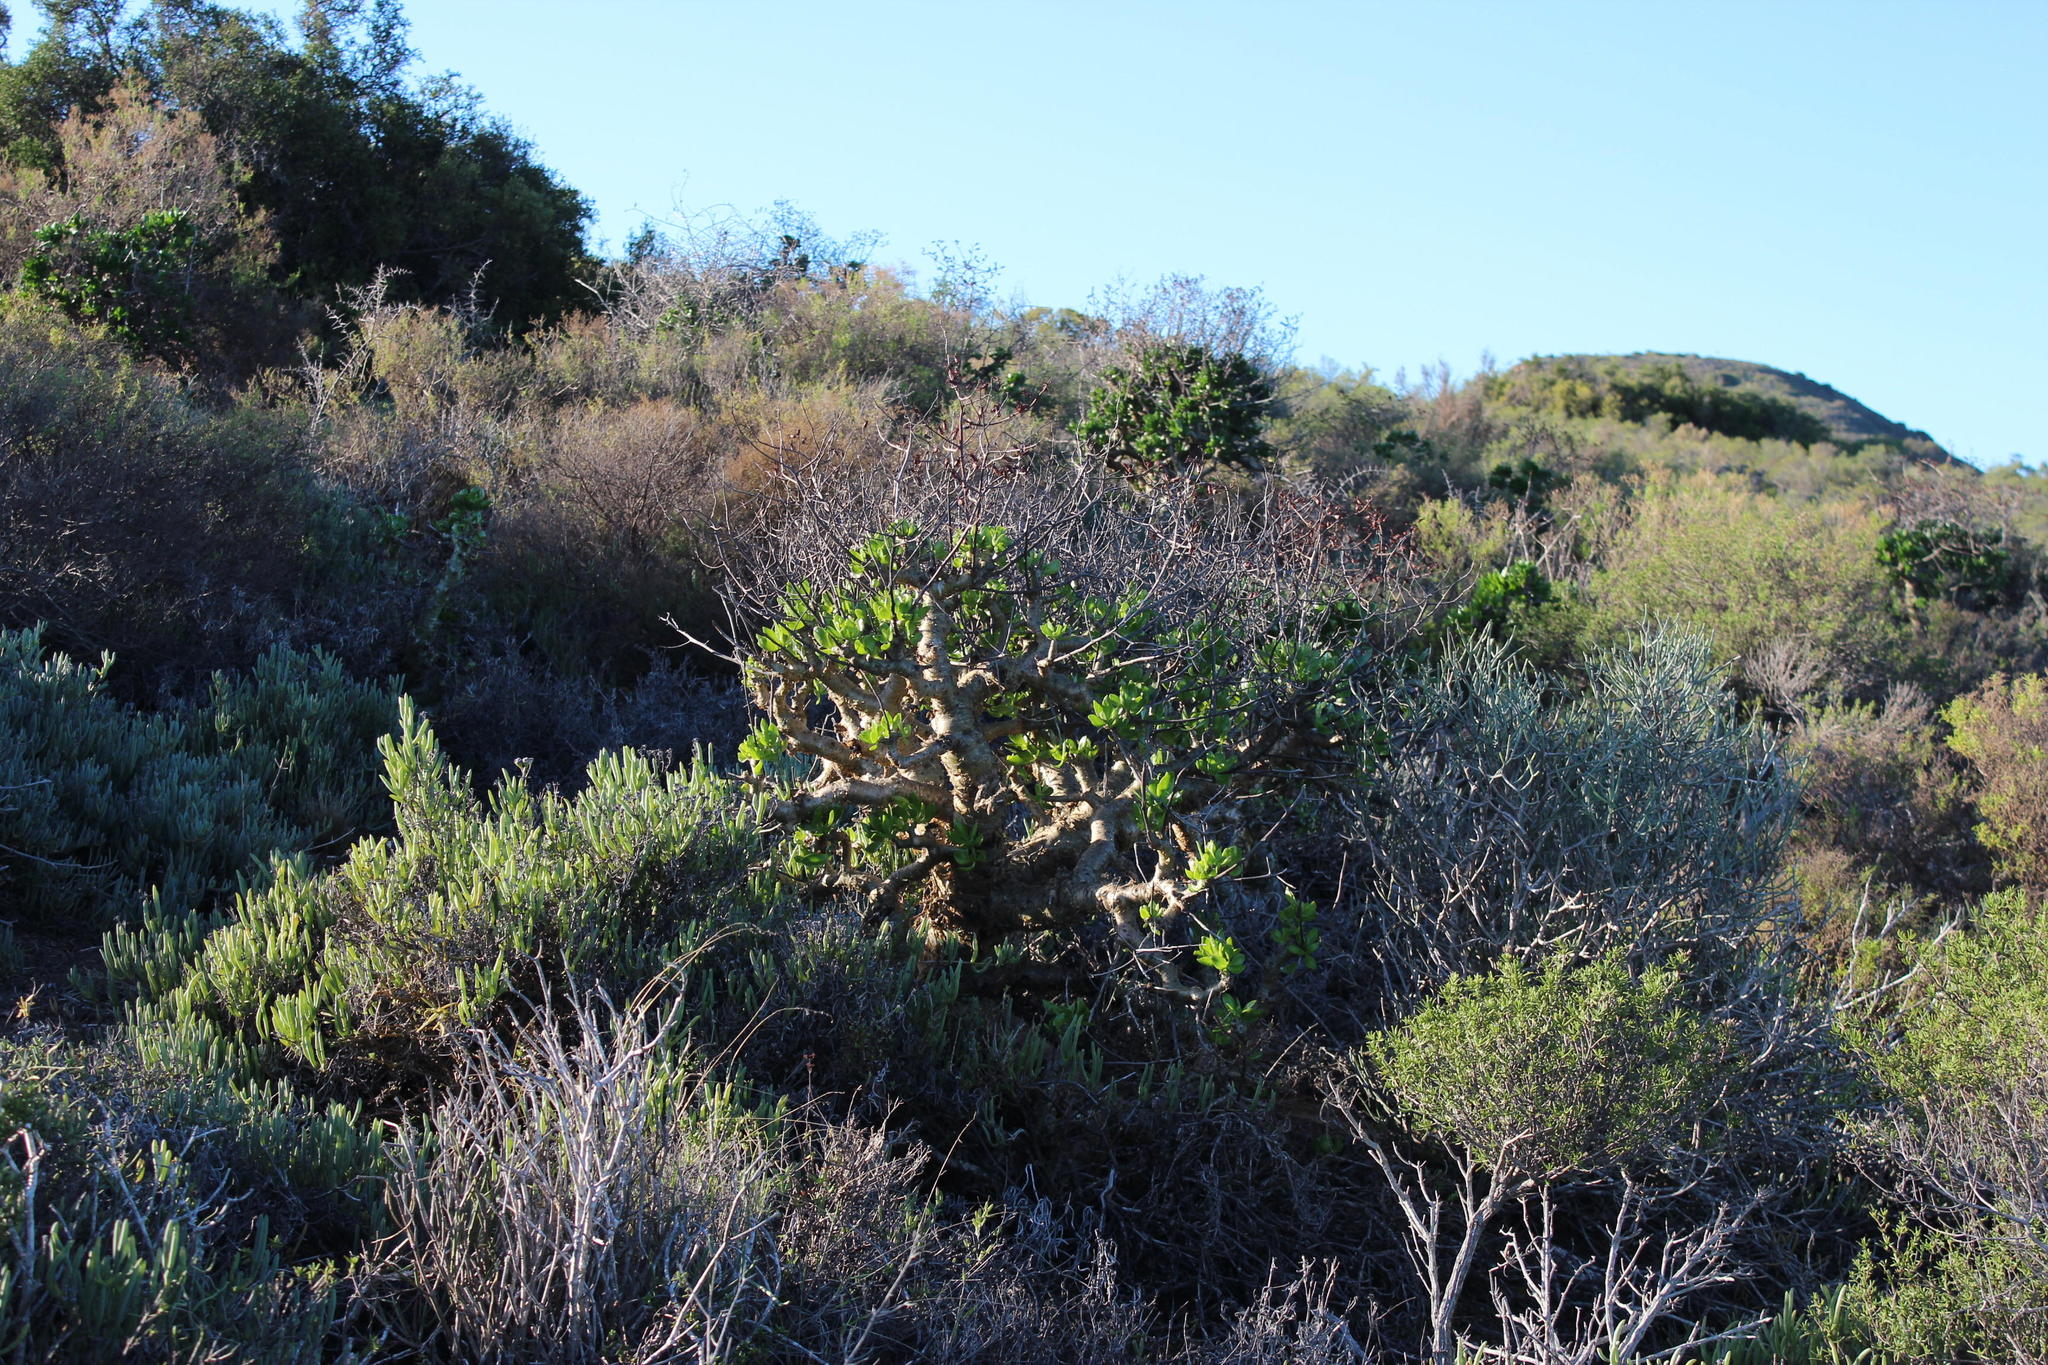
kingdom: Plantae
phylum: Tracheophyta
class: Magnoliopsida
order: Saxifragales
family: Crassulaceae
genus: Tylecodon
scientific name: Tylecodon paniculatus
